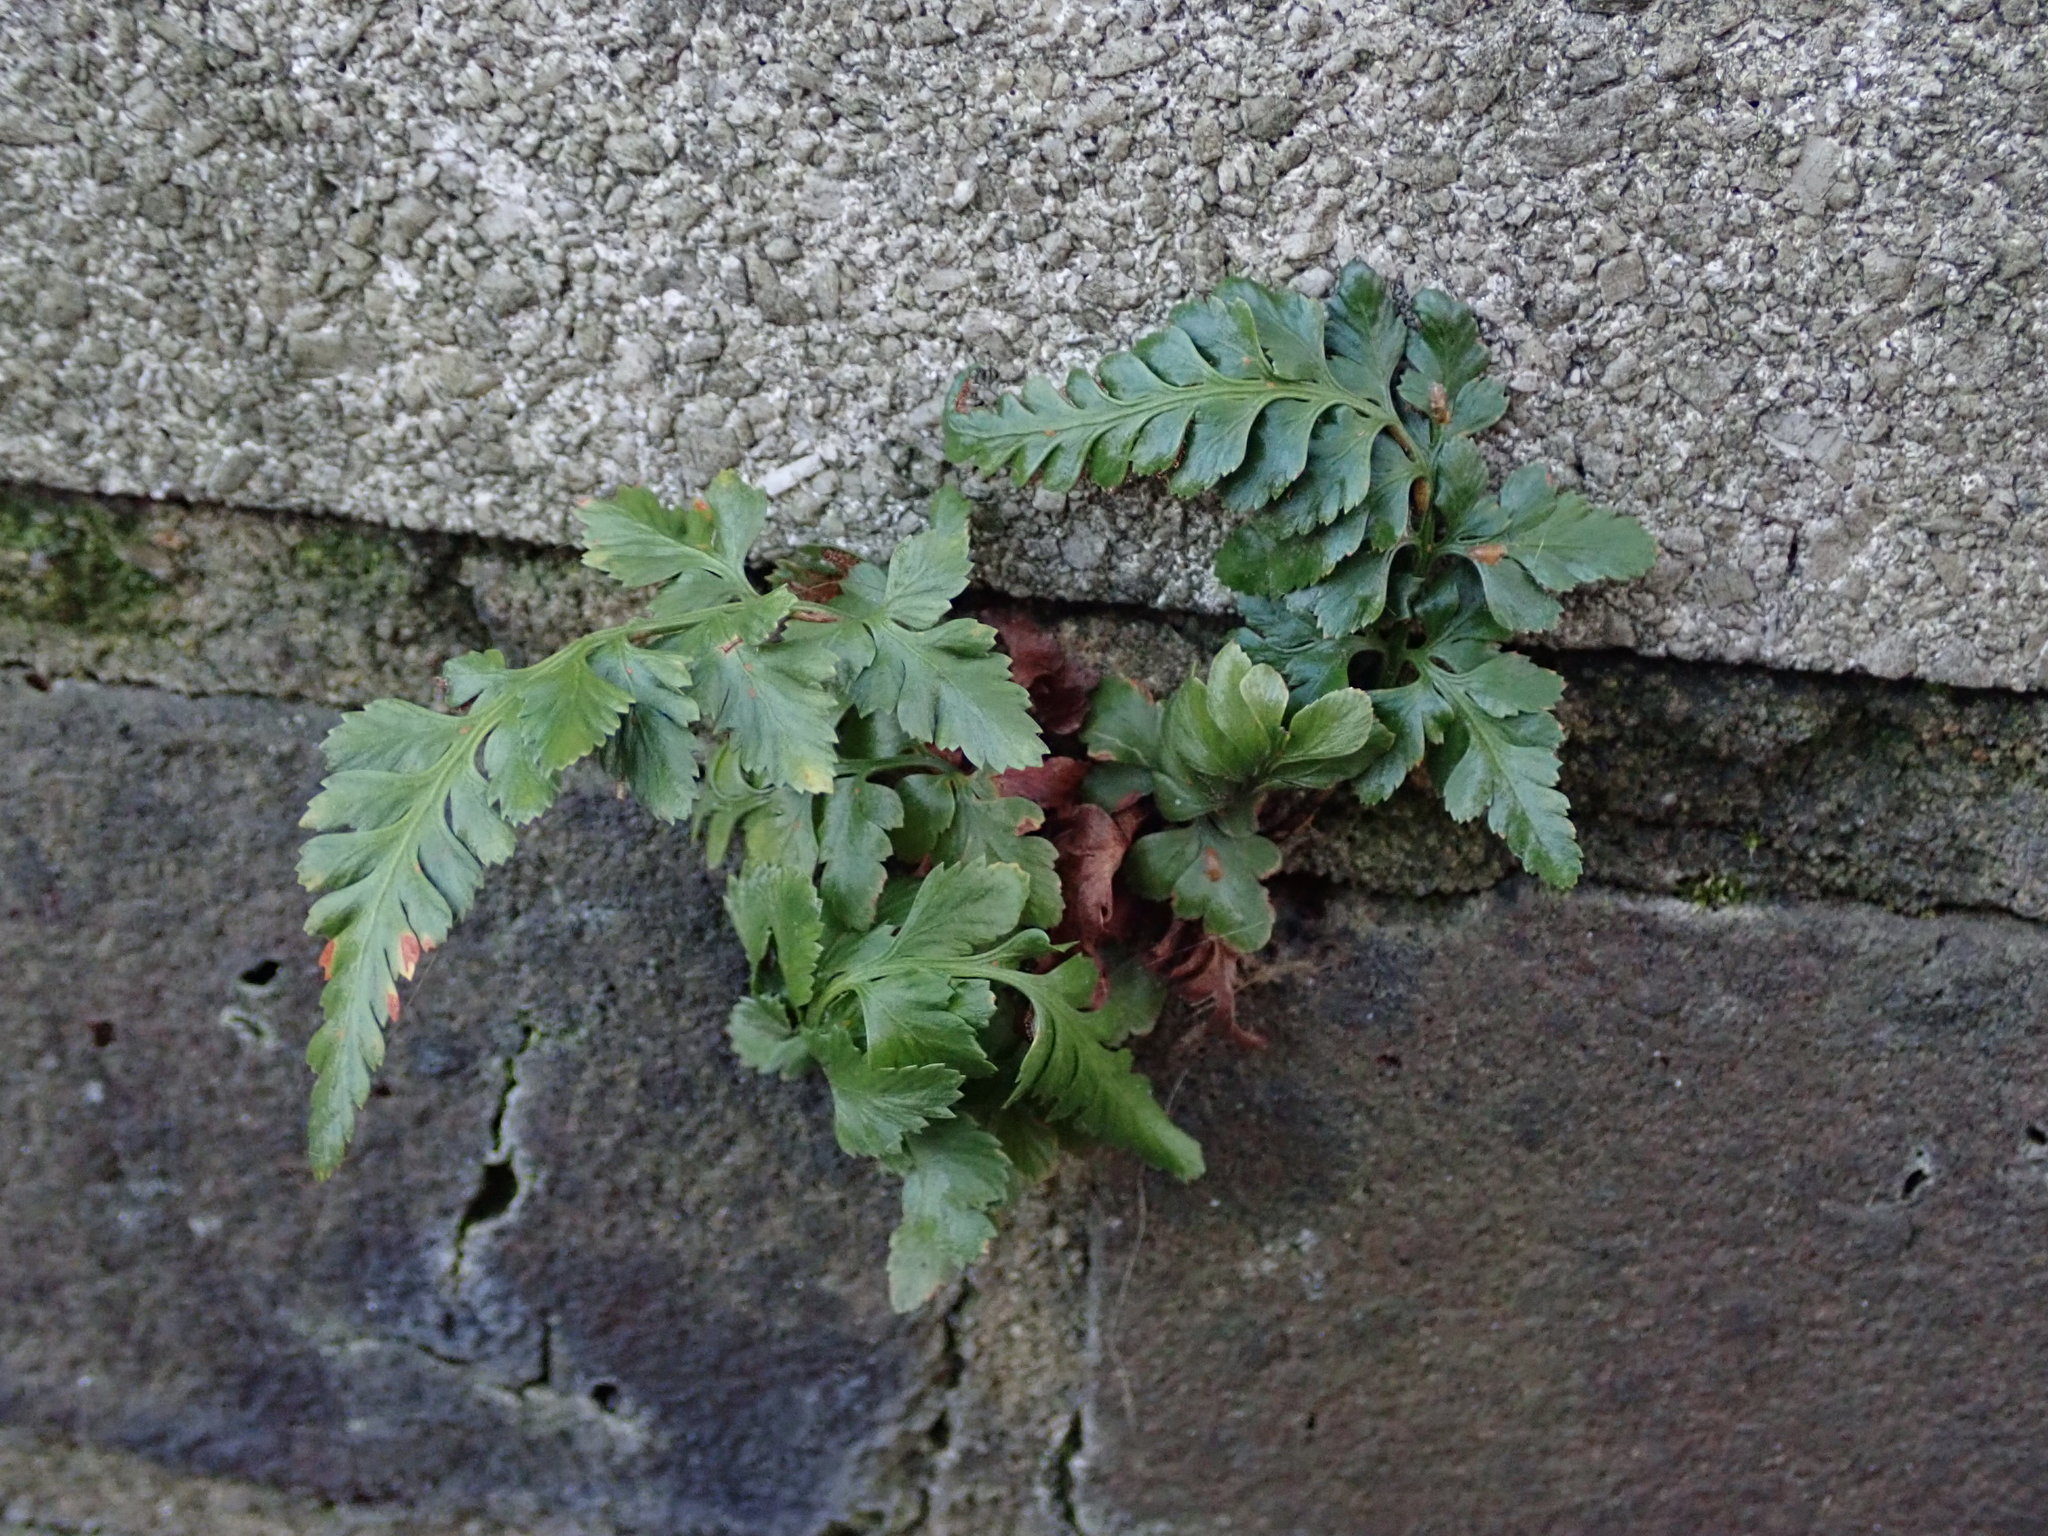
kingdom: Plantae
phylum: Tracheophyta
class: Polypodiopsida
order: Polypodiales
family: Aspleniaceae
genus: Asplenium
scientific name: Asplenium adiantum-nigrum
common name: Black spleenwort
